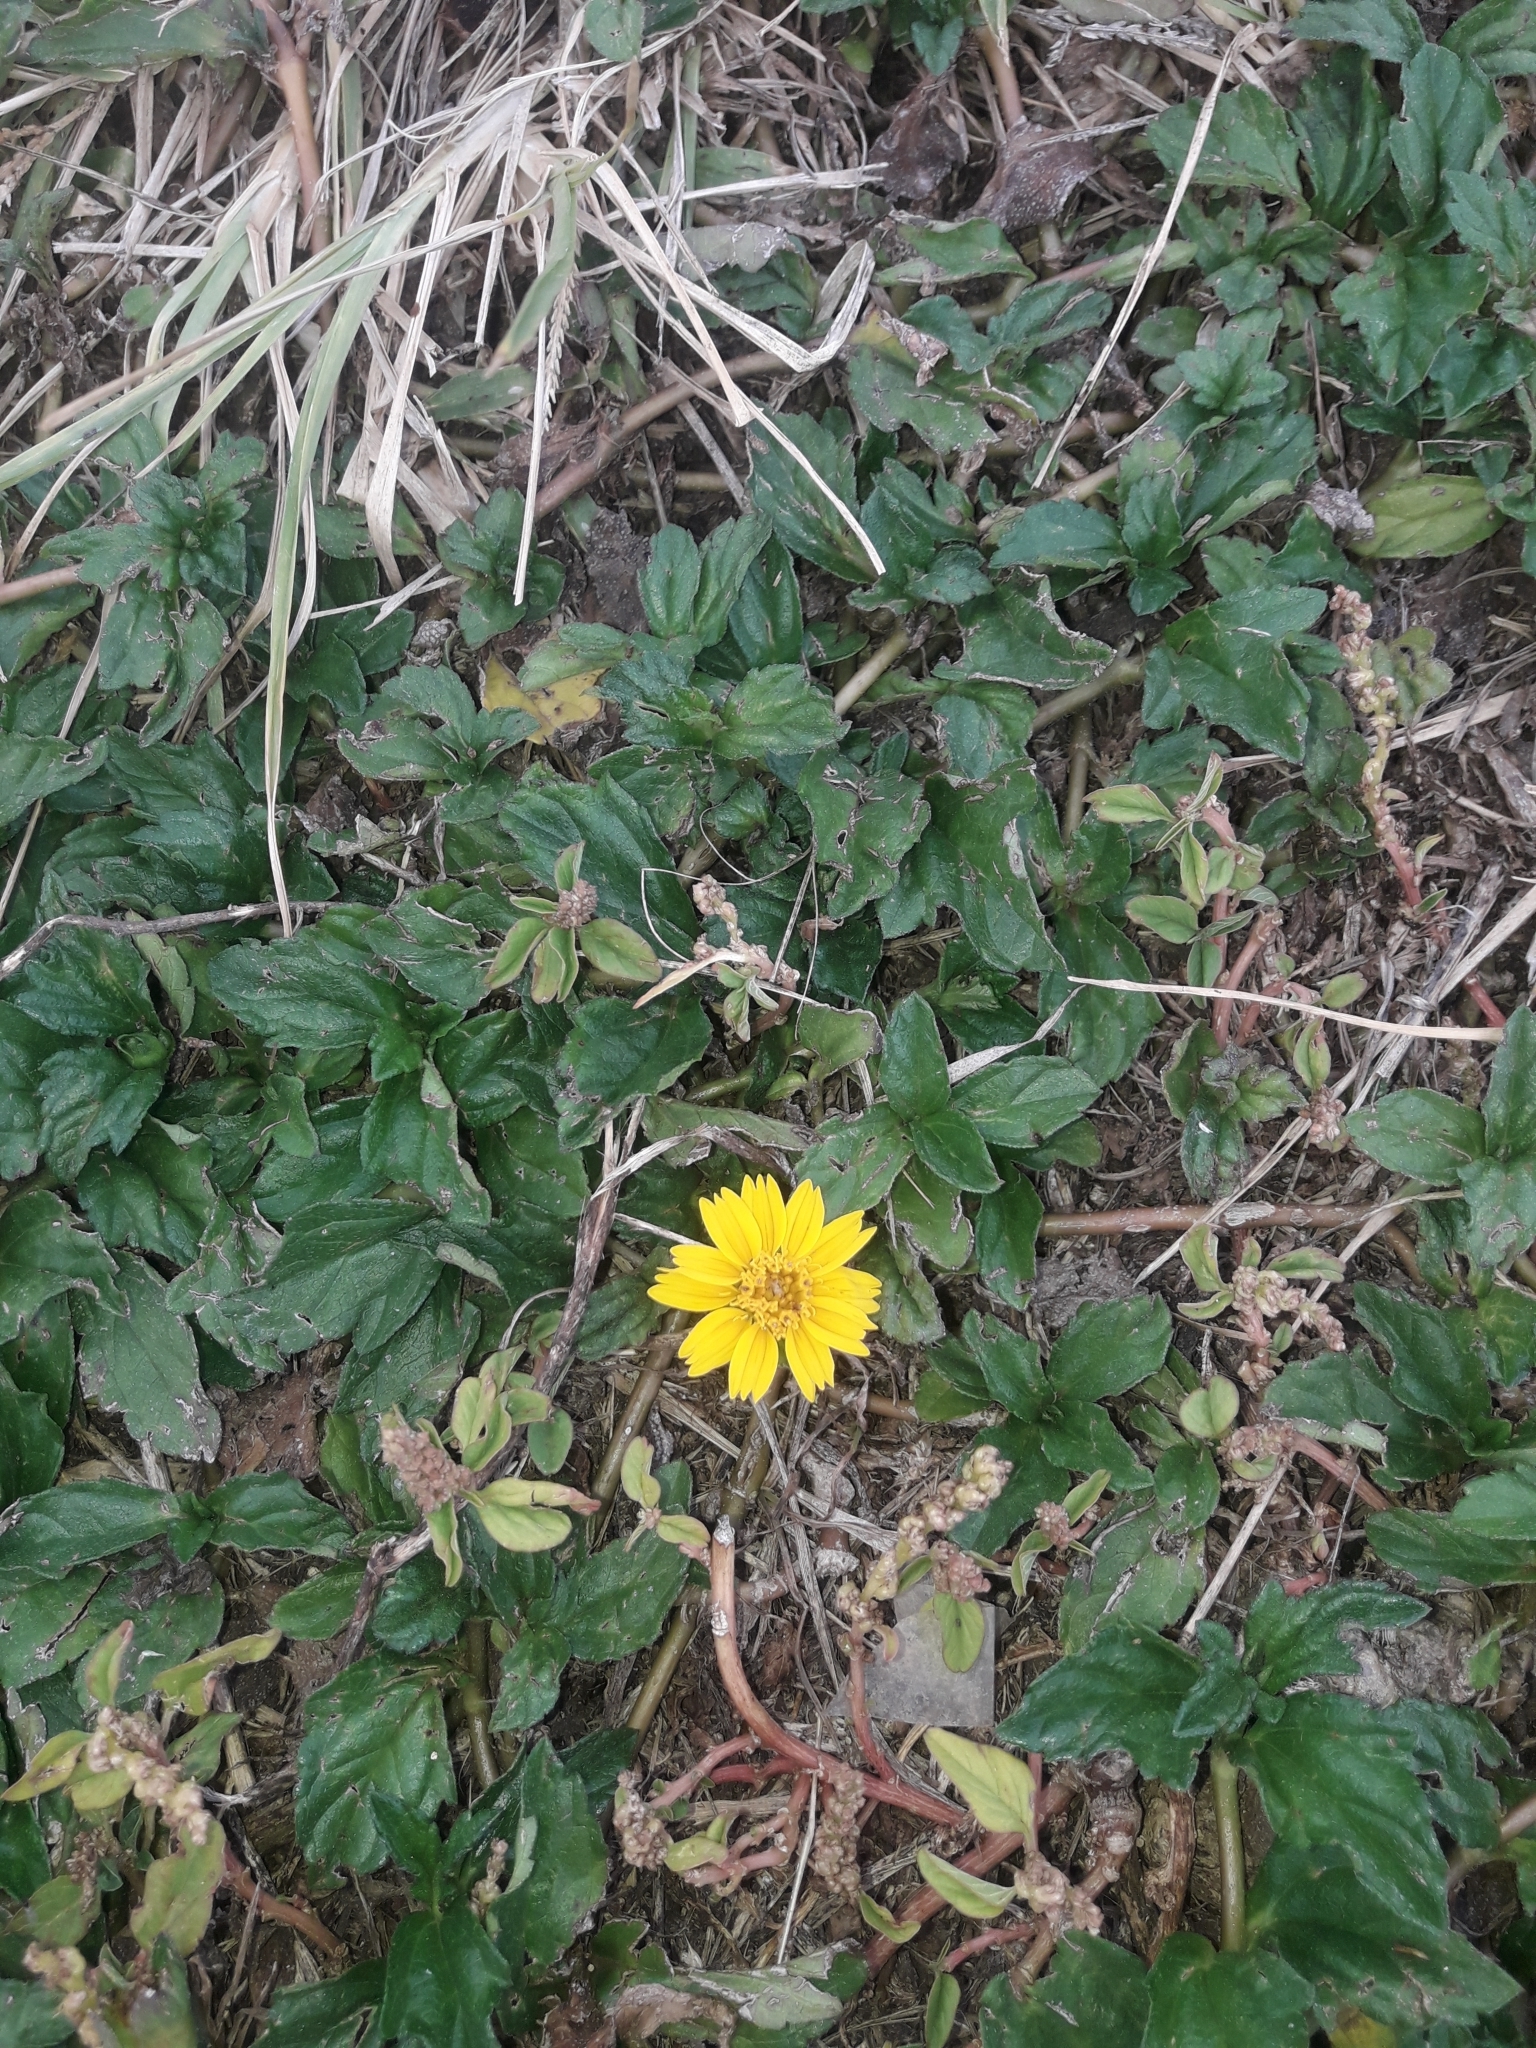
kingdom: Plantae
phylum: Tracheophyta
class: Magnoliopsida
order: Asterales
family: Asteraceae
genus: Sphagneticola
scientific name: Sphagneticola trilobata
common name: Bay biscayne creeping-oxeye
